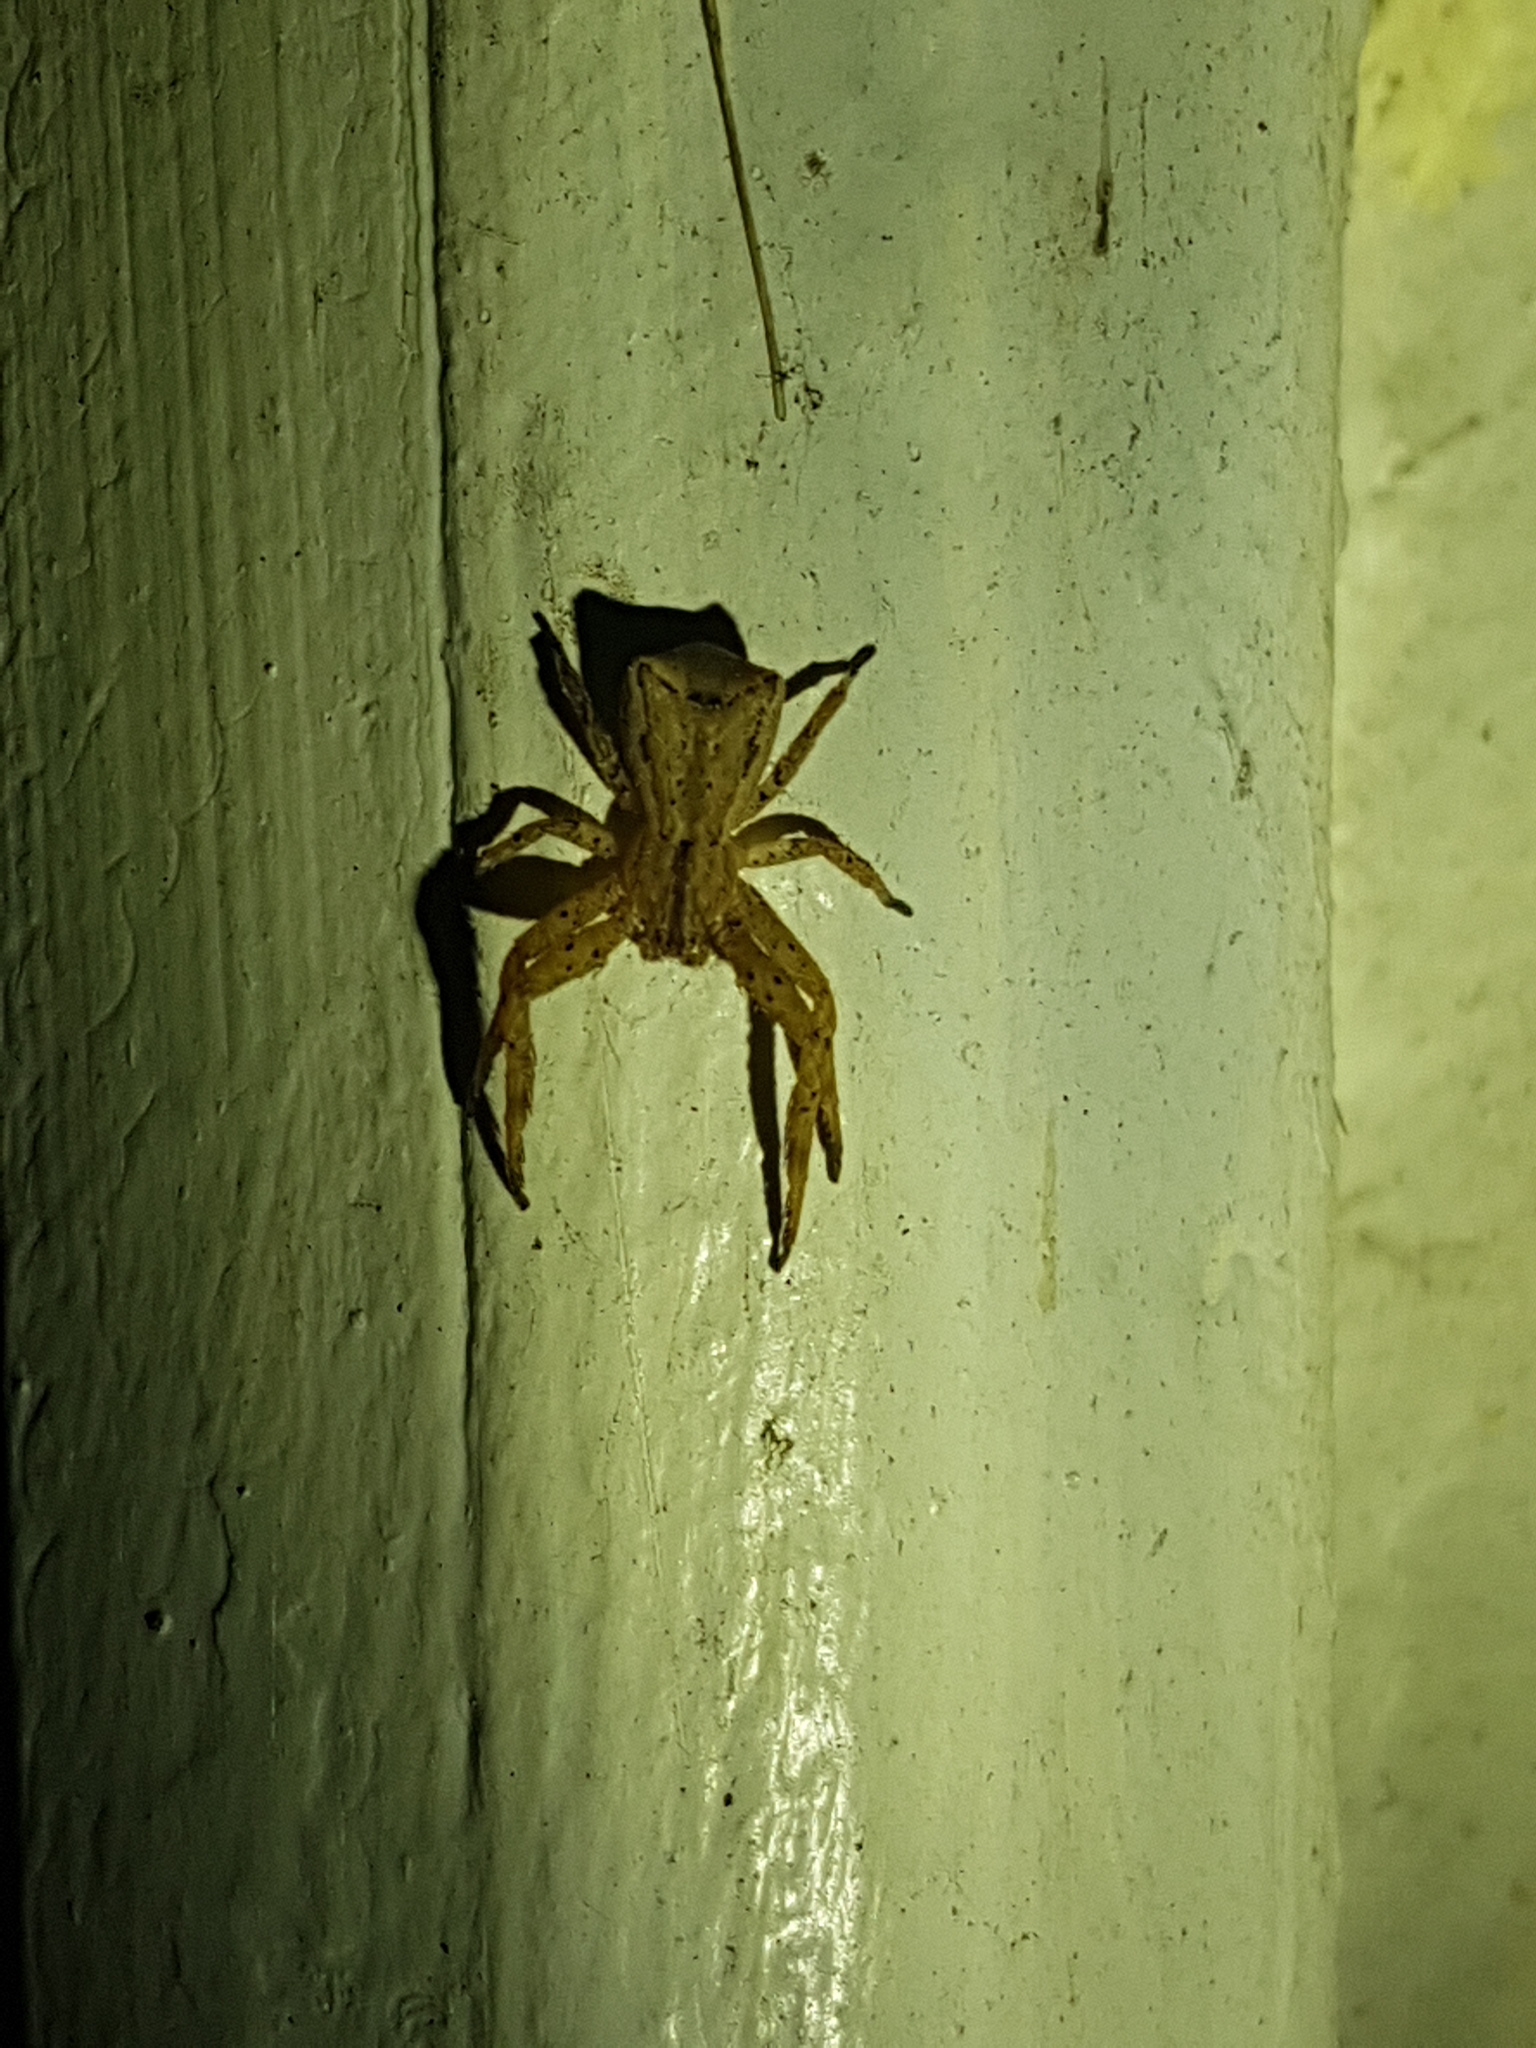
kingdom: Animalia
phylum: Arthropoda
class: Arachnida
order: Araneae
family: Thomisidae
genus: Sidymella
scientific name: Sidymella angulata
